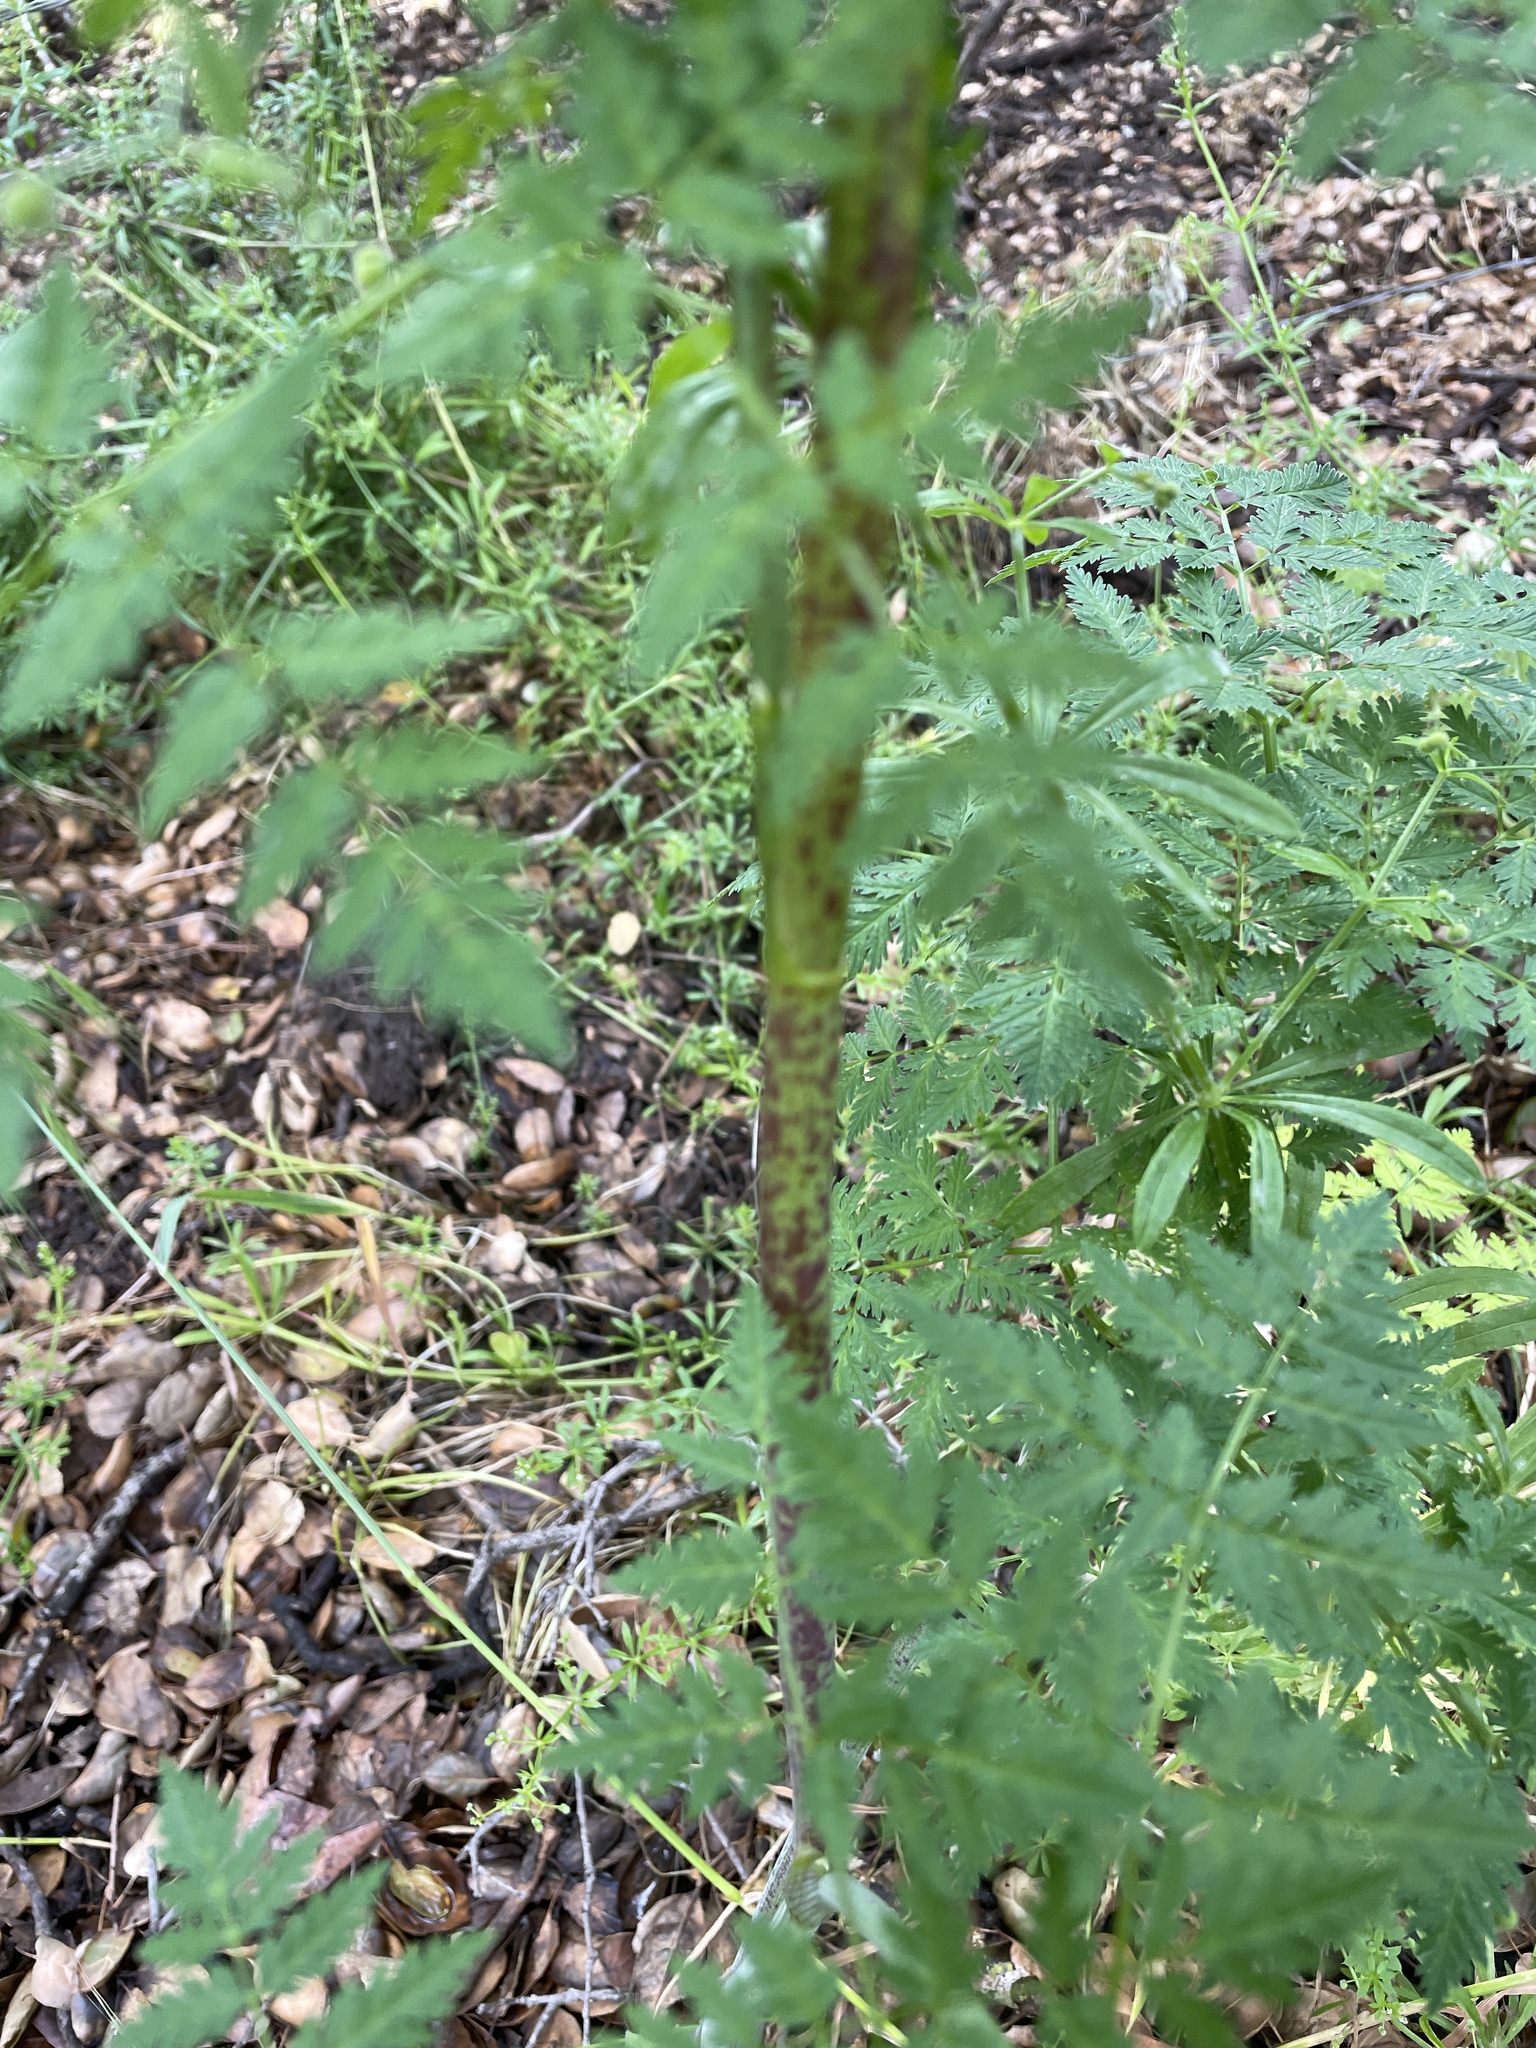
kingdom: Plantae
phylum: Tracheophyta
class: Magnoliopsida
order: Apiales
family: Apiaceae
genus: Conium
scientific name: Conium maculatum
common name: Hemlock
